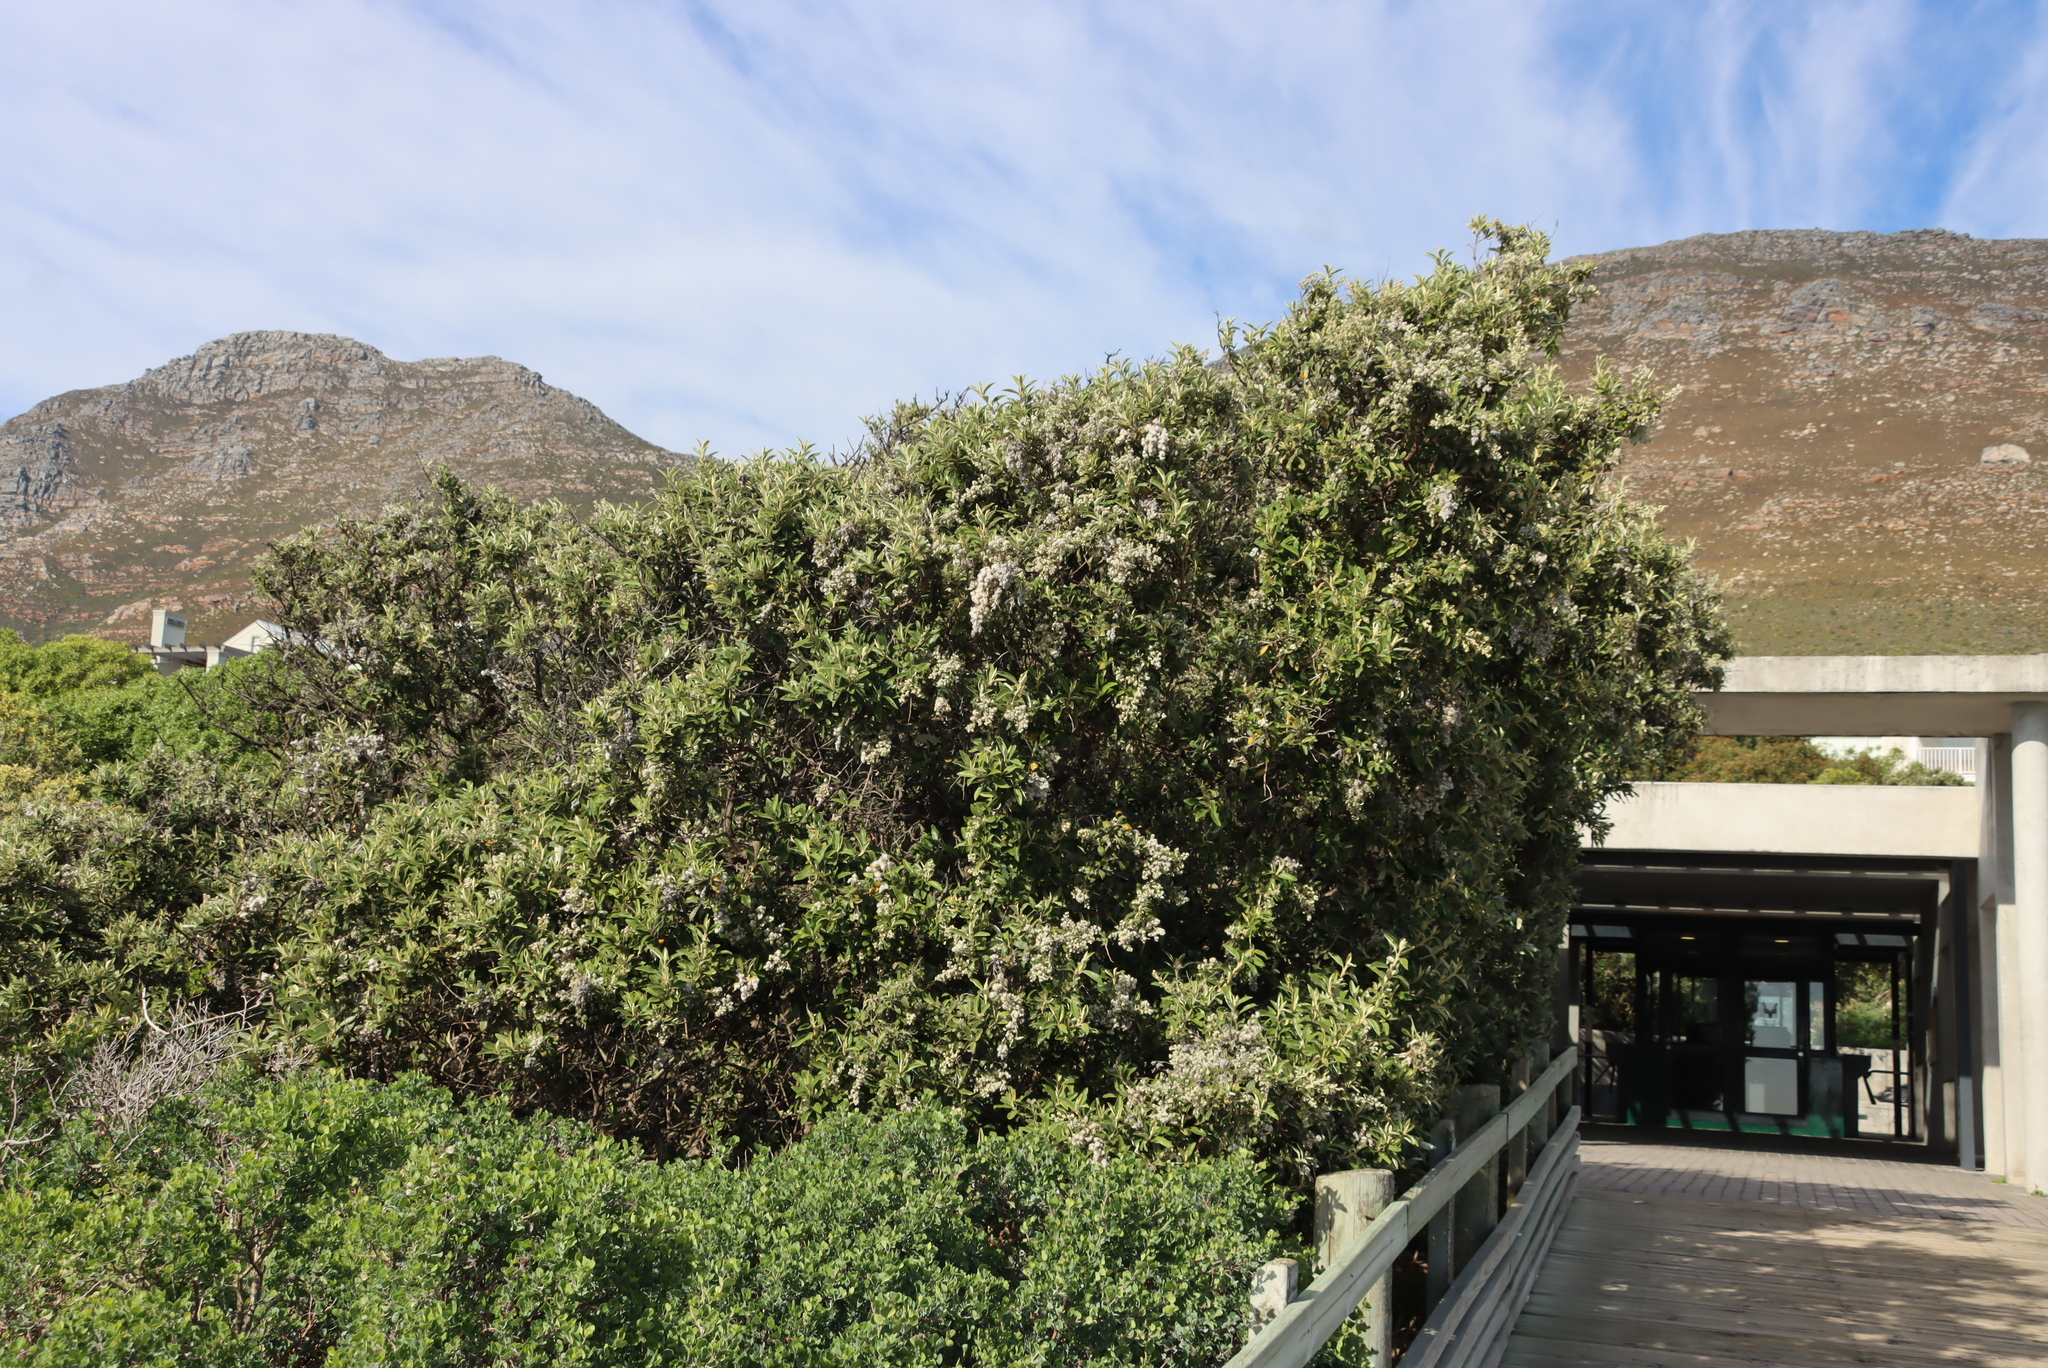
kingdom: Plantae
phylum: Tracheophyta
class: Magnoliopsida
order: Asterales
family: Asteraceae
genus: Tarchonanthus
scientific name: Tarchonanthus littoralis
